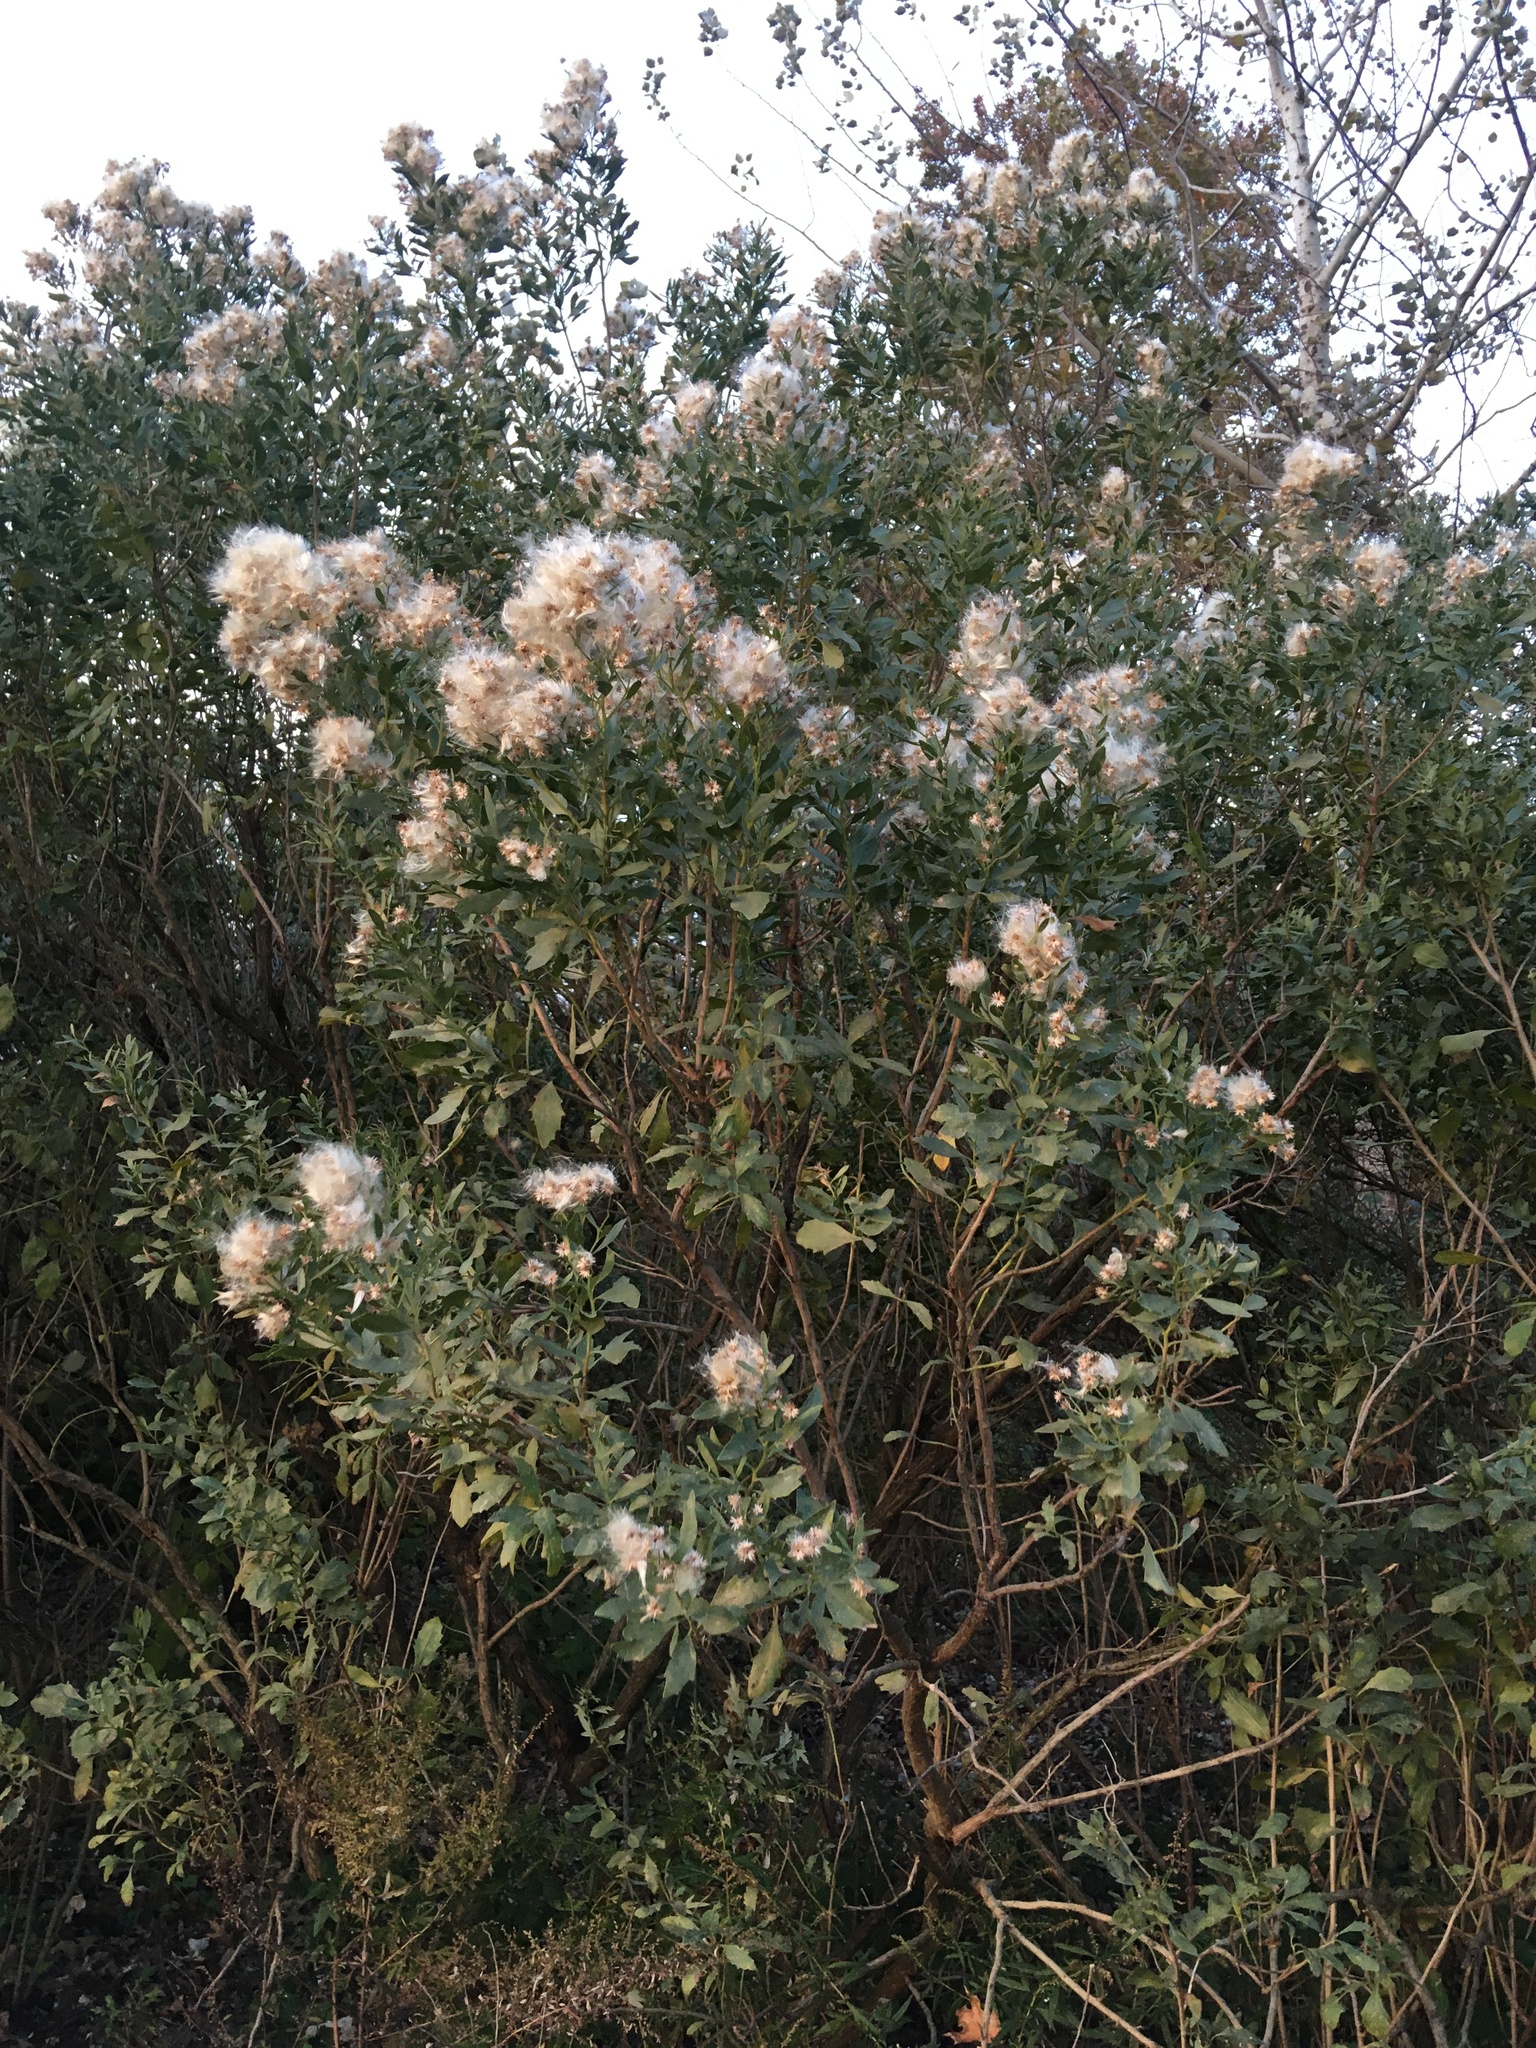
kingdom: Plantae
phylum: Tracheophyta
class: Magnoliopsida
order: Asterales
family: Asteraceae
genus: Baccharis
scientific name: Baccharis halimifolia
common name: Eastern baccharis
